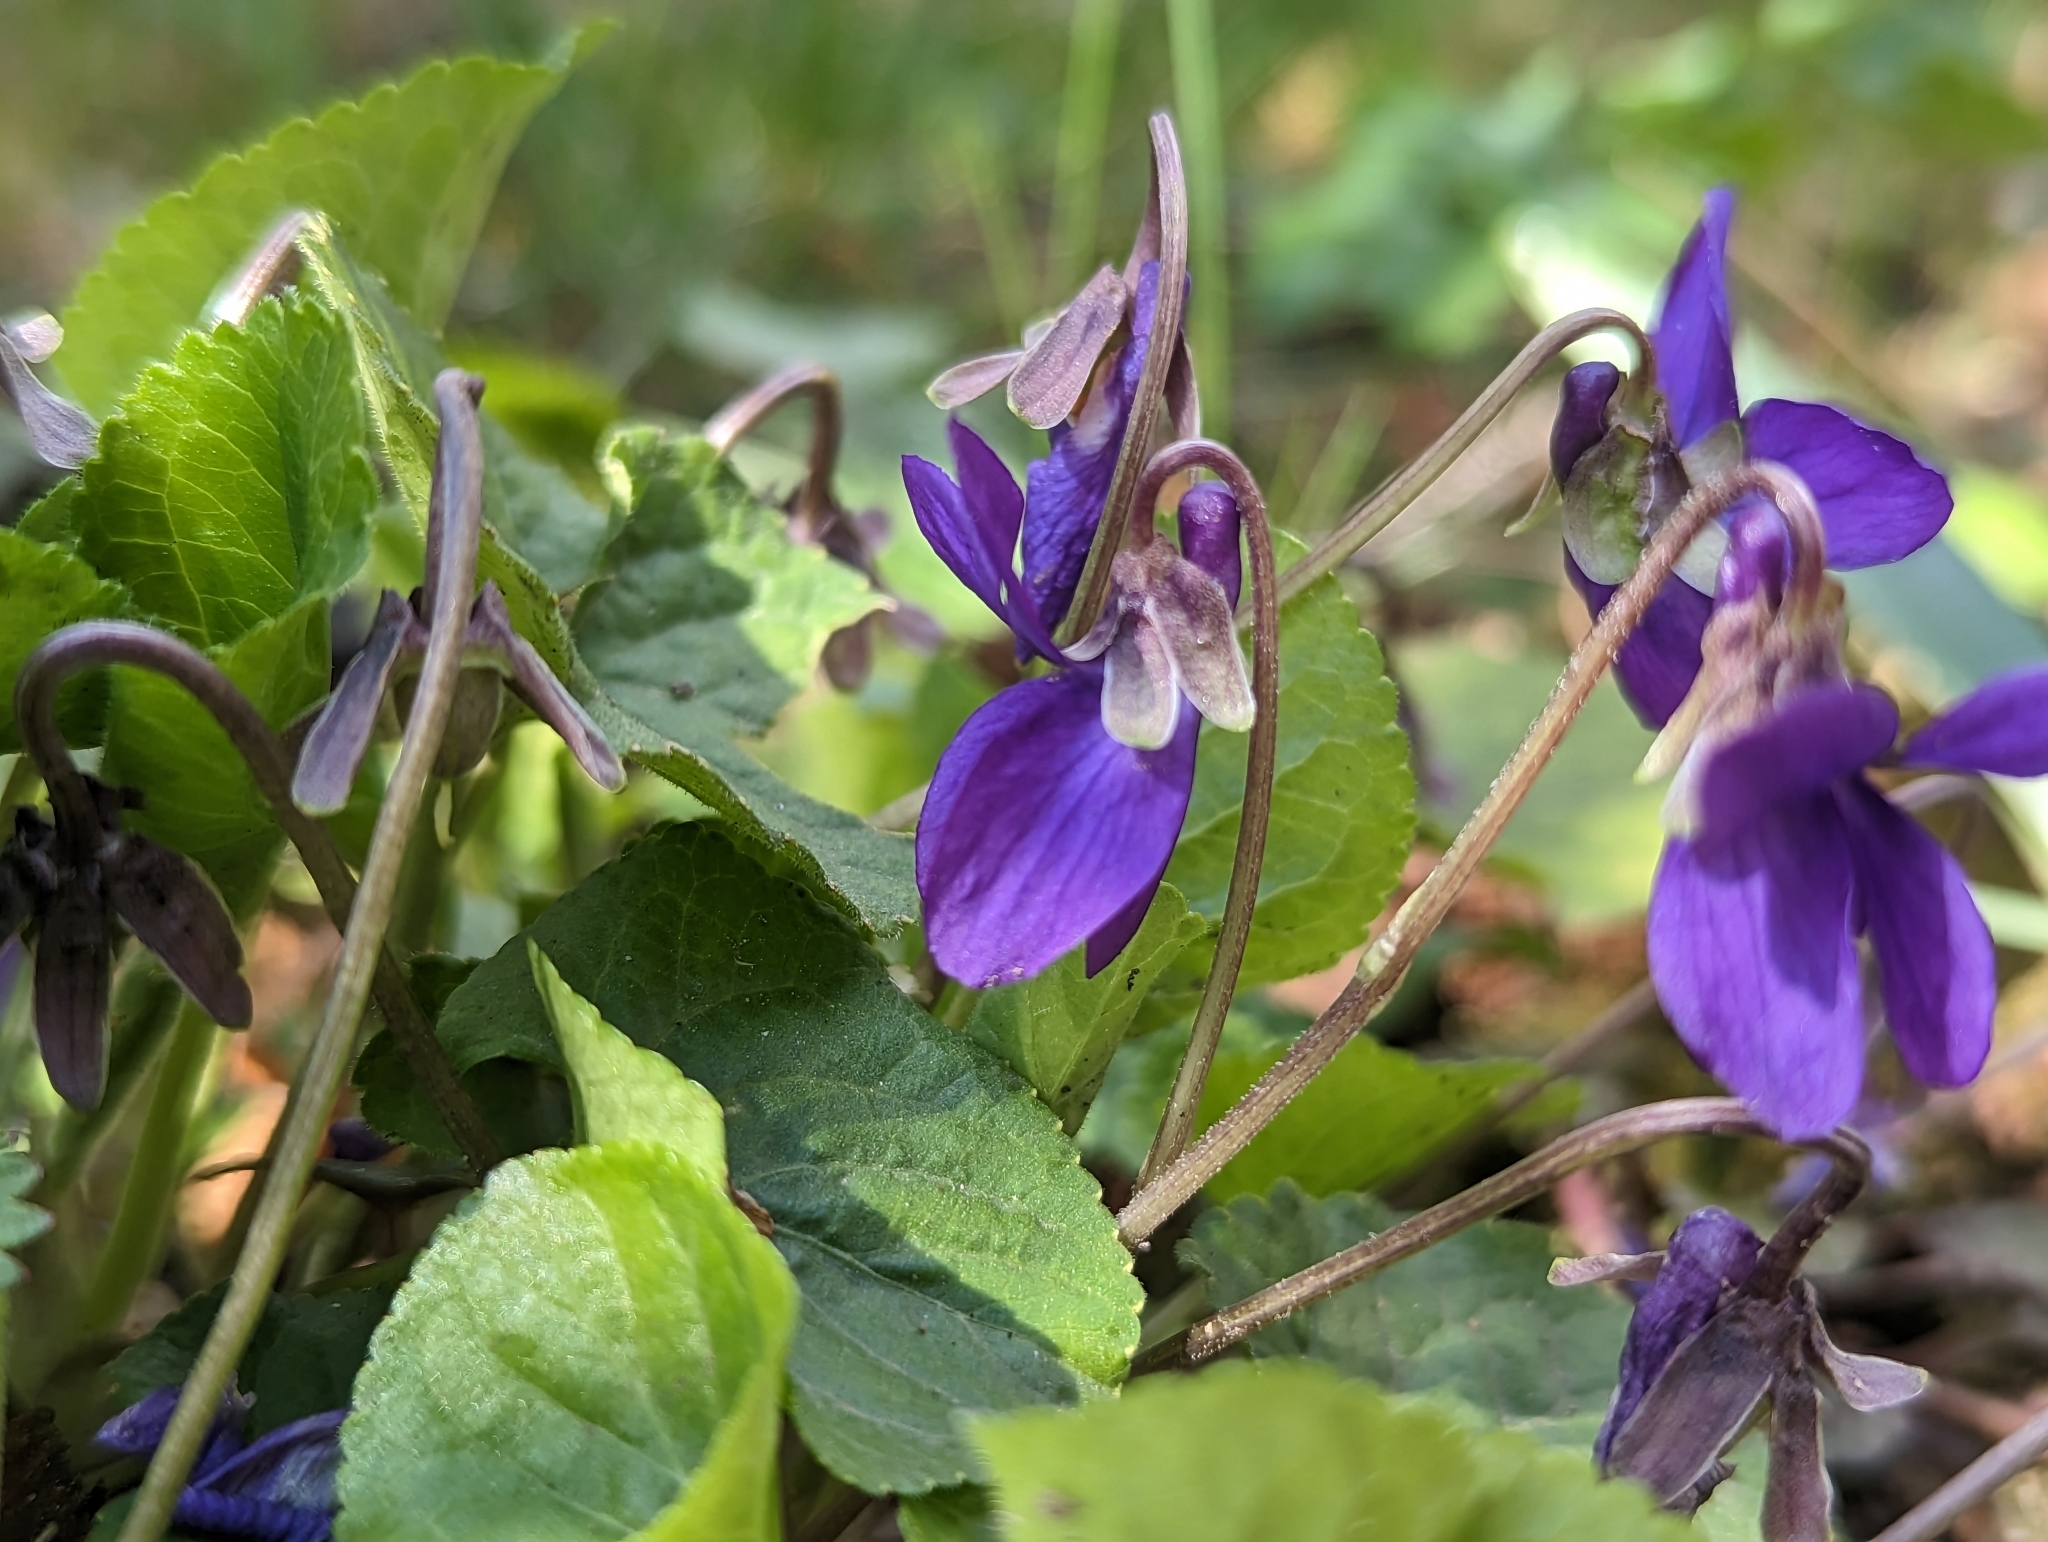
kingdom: Plantae
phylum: Tracheophyta
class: Magnoliopsida
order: Malpighiales
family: Violaceae
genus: Viola
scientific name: Viola odorata
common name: Sweet violet
